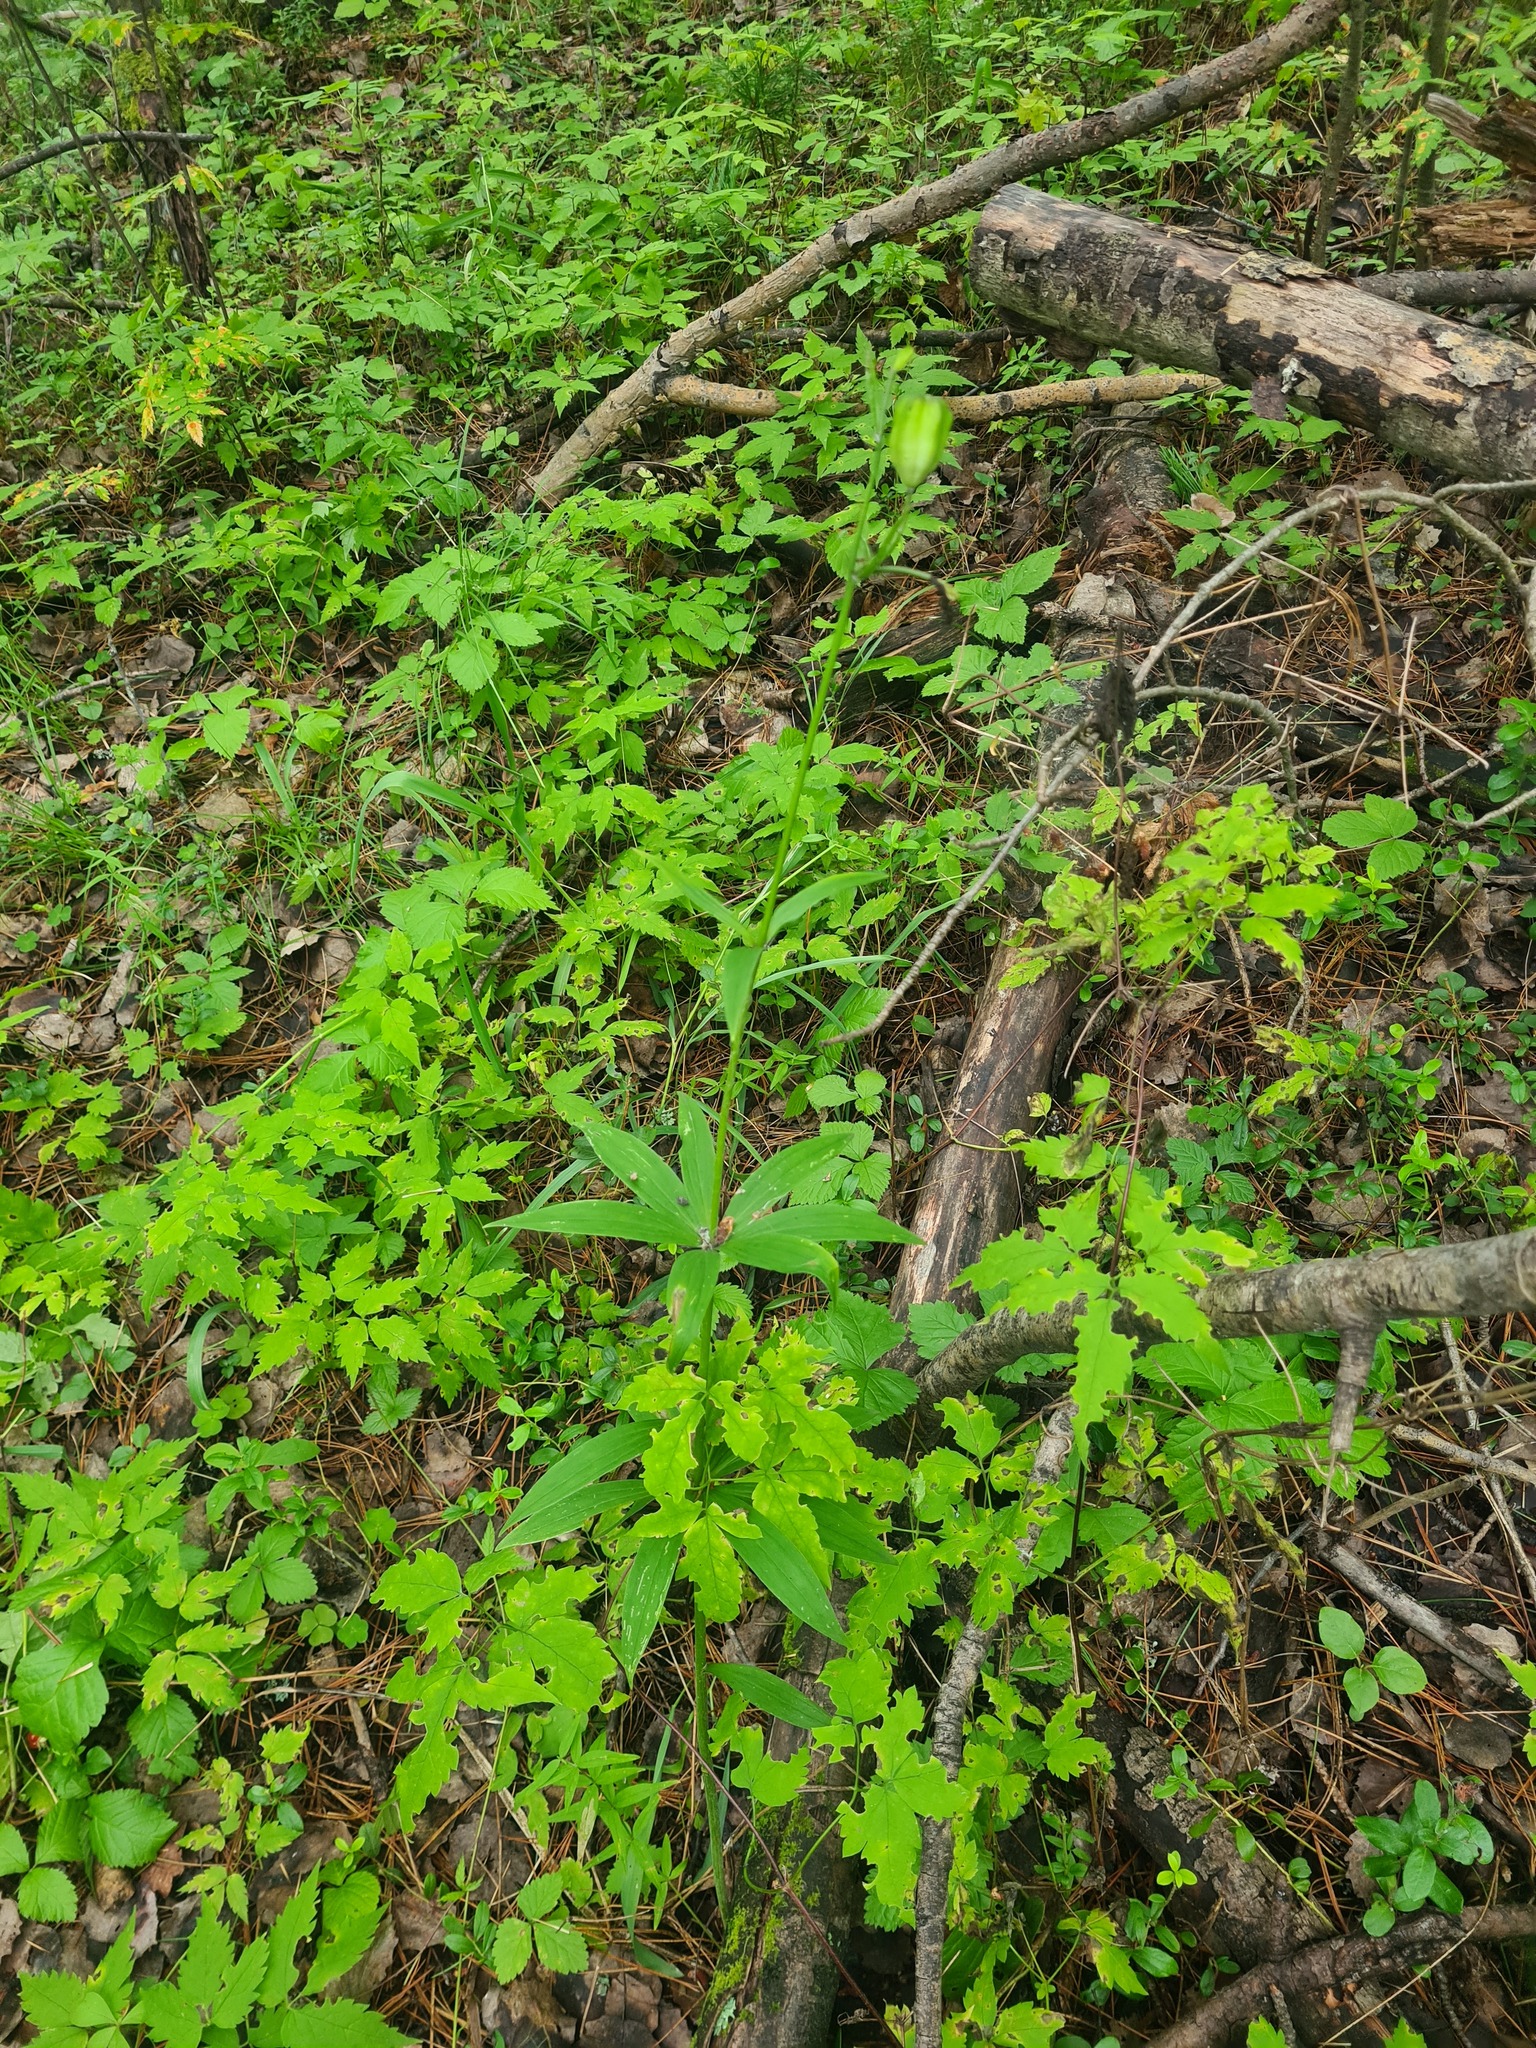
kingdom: Plantae
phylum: Tracheophyta
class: Liliopsida
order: Liliales
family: Liliaceae
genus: Lilium
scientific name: Lilium martagon
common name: Martagon lily
